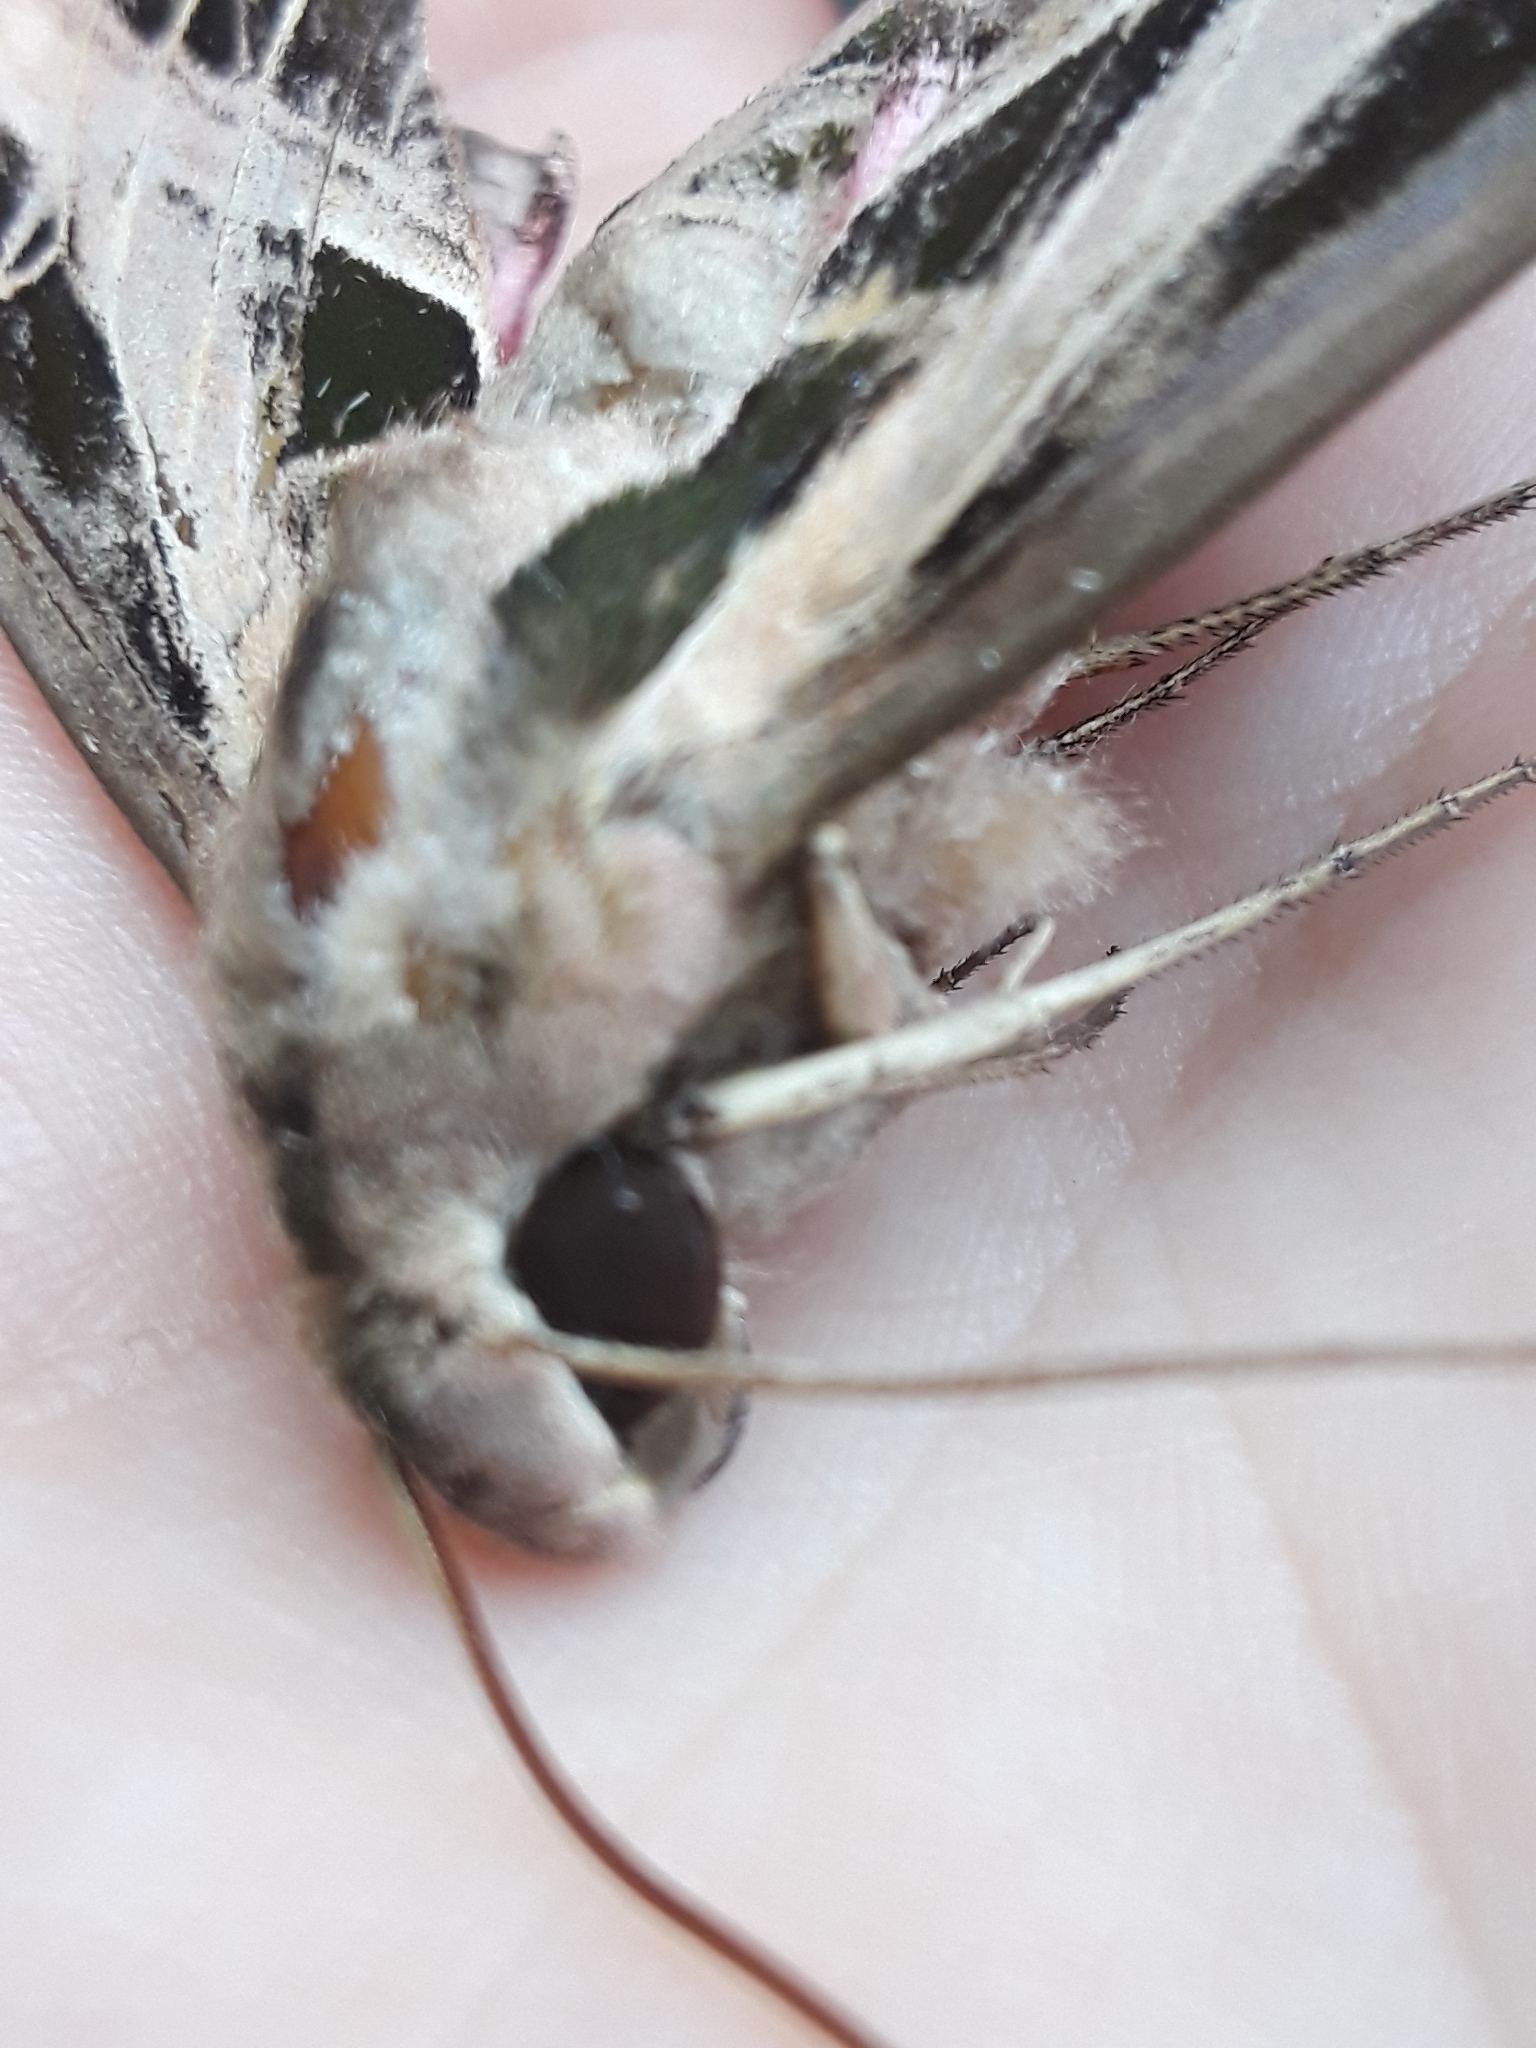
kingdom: Animalia
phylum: Arthropoda
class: Insecta
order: Lepidoptera
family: Sphingidae
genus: Eumorpha
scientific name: Eumorpha fasciatus
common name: Banded sphinx
